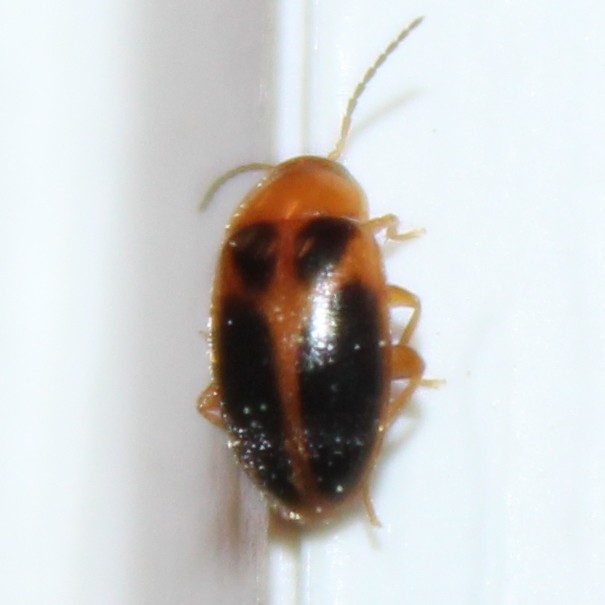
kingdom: Animalia
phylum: Arthropoda
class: Insecta
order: Coleoptera
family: Scirtidae
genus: Sacodes
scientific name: Sacodes pulchella
